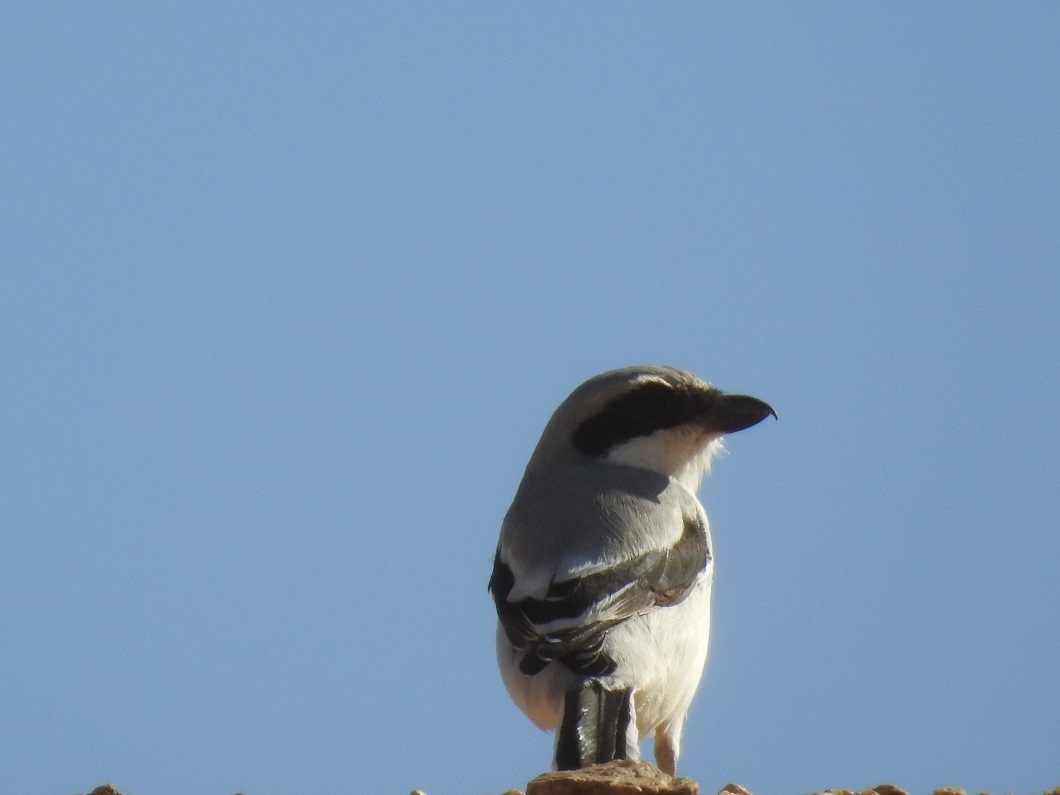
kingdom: Animalia
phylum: Chordata
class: Aves
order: Passeriformes
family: Laniidae
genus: Lanius
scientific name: Lanius excubitor
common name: Great grey shrike
